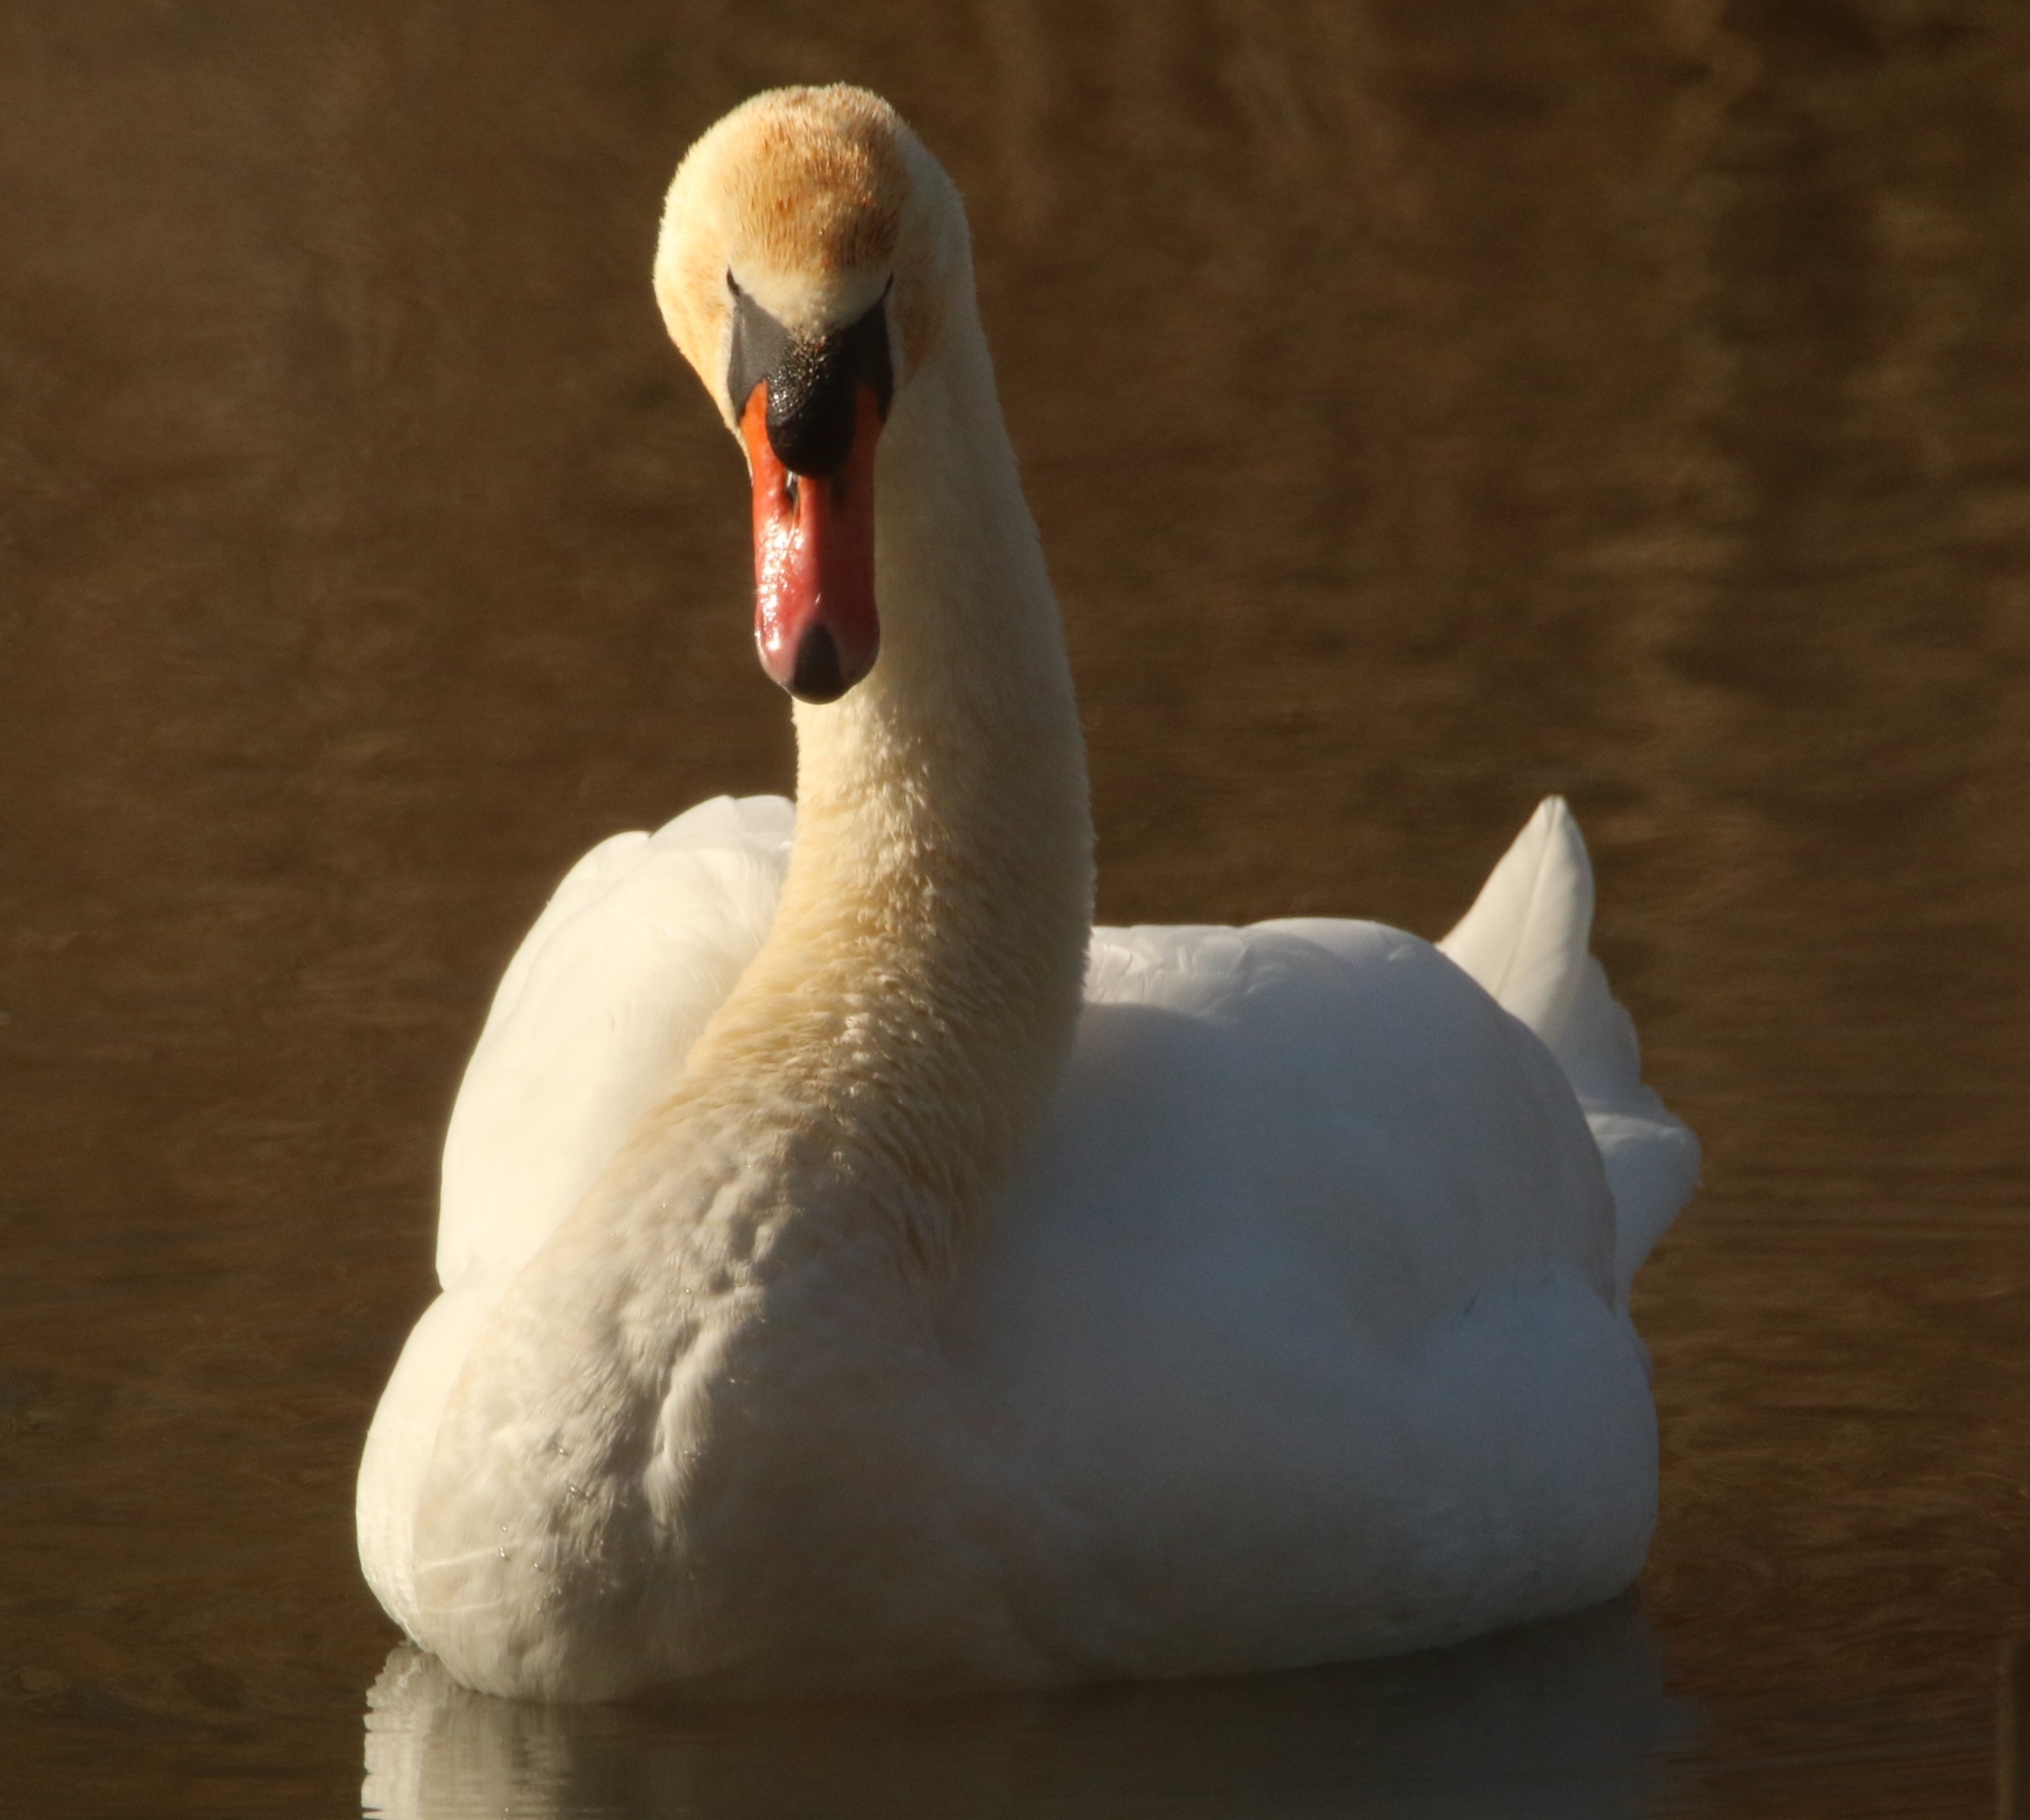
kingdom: Animalia
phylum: Chordata
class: Aves
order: Anseriformes
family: Anatidae
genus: Cygnus
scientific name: Cygnus olor
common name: Mute swan
